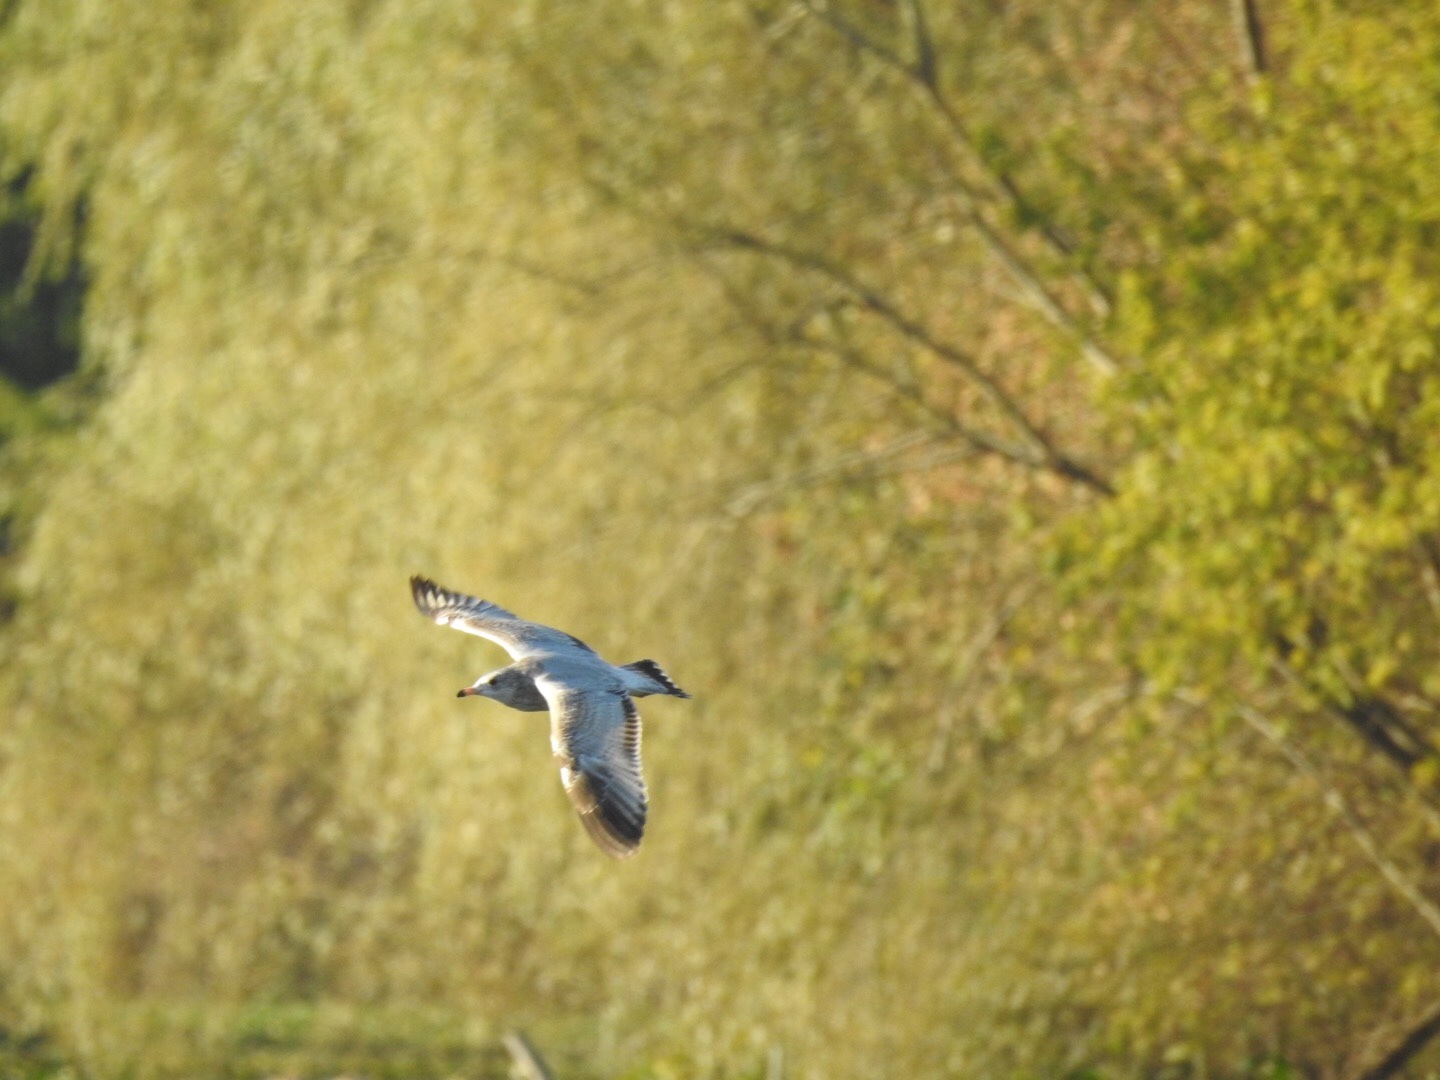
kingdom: Animalia
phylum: Chordata
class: Aves
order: Charadriiformes
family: Laridae
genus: Larus
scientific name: Larus delawarensis
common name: Ring-billed gull
